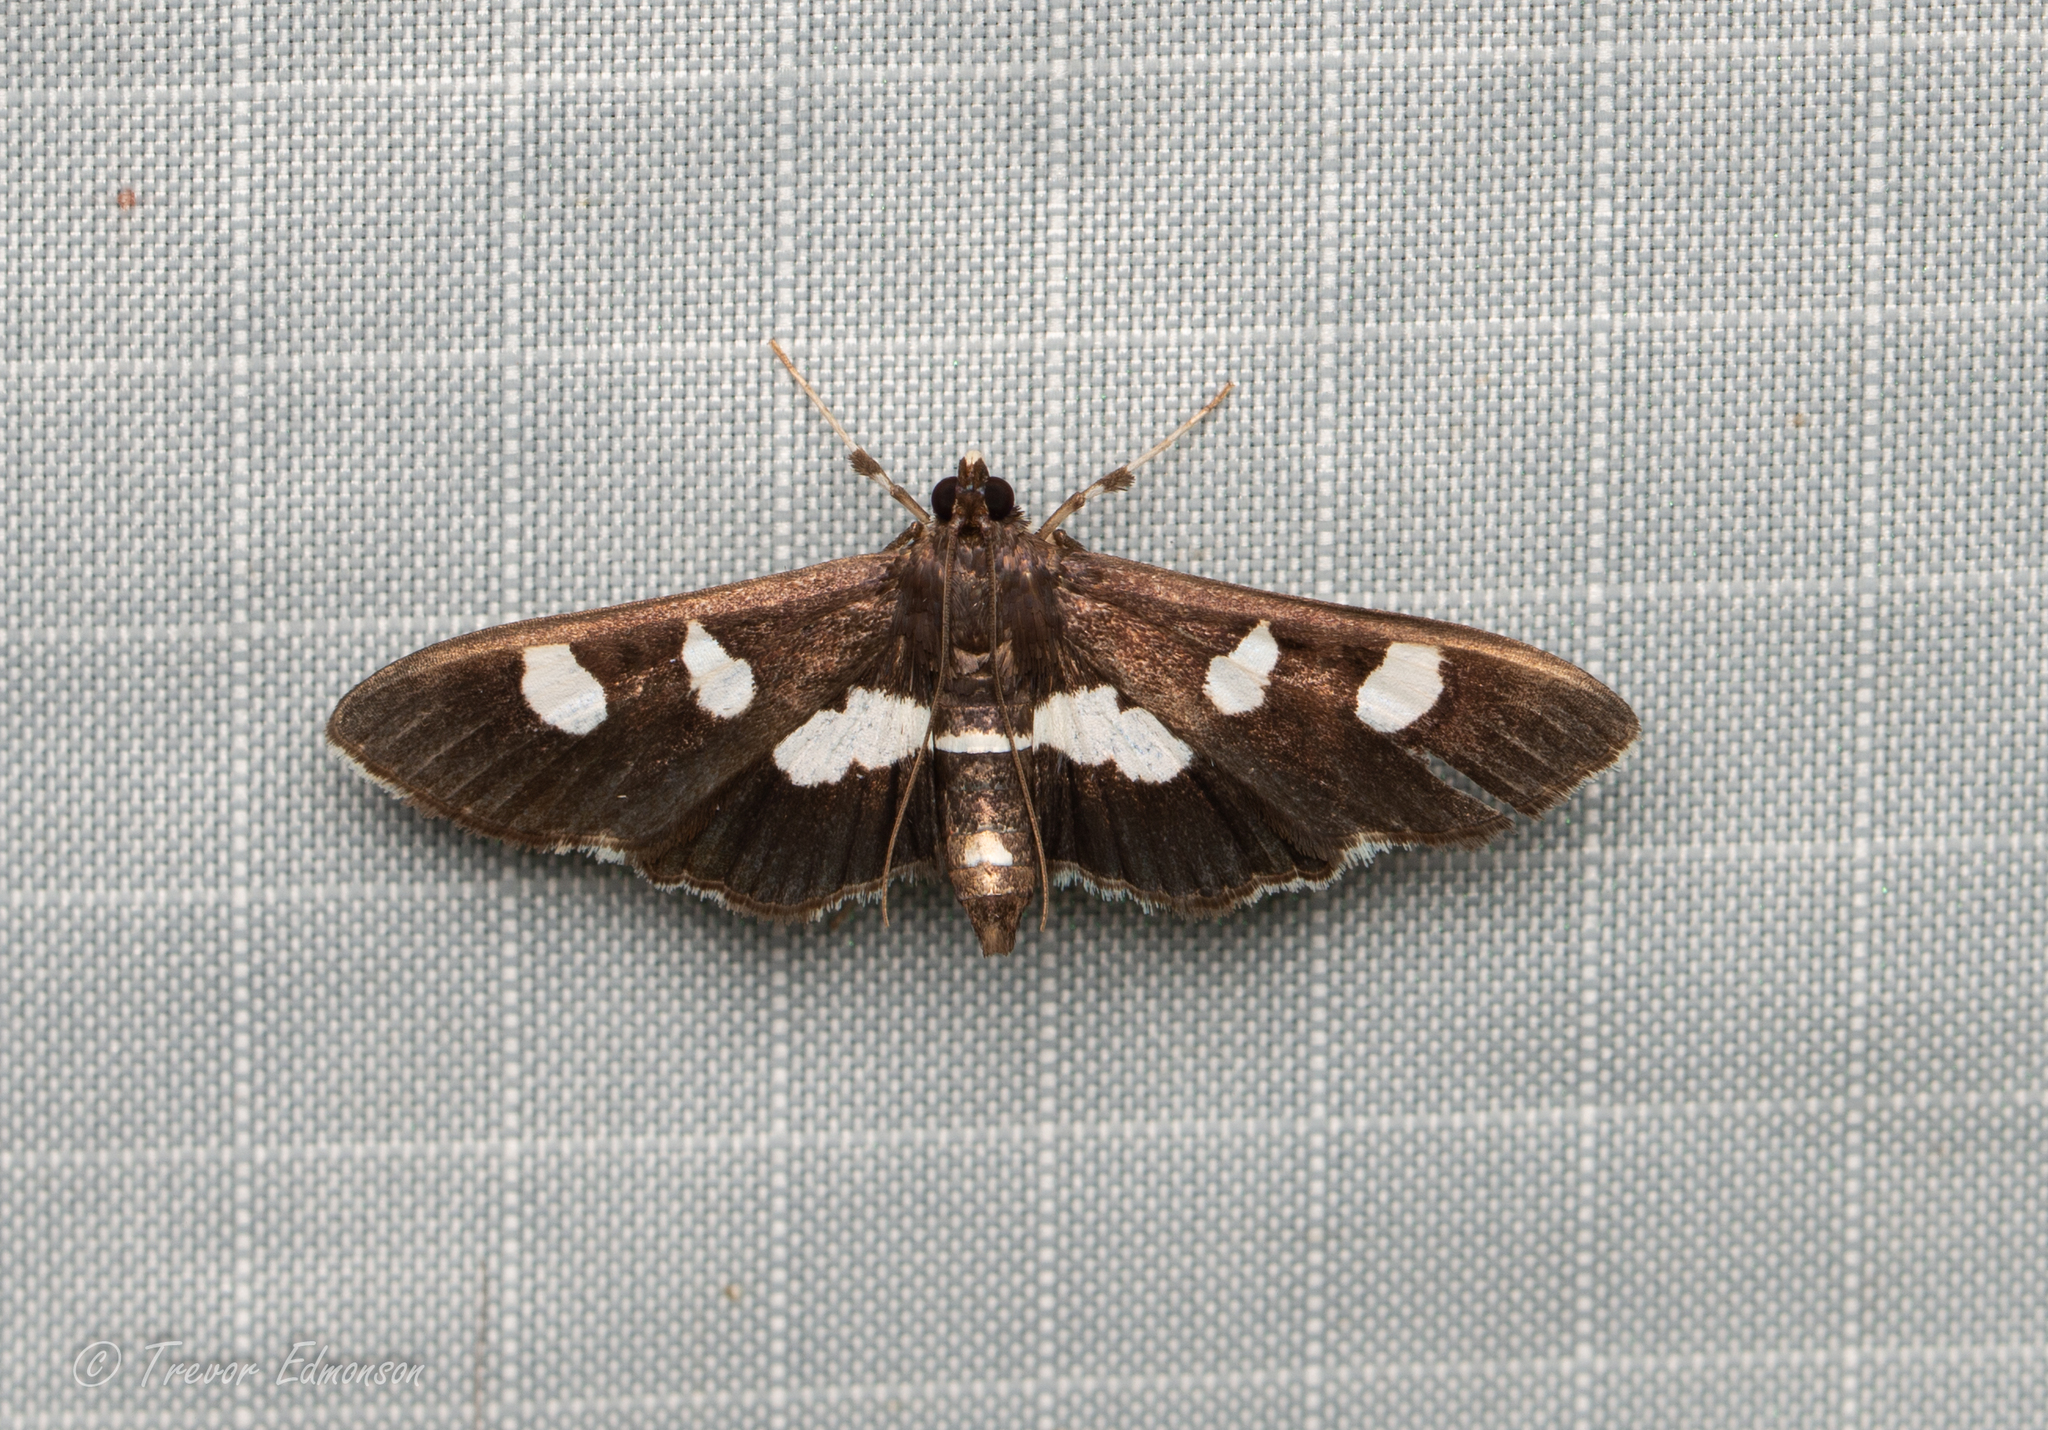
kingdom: Animalia
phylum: Arthropoda
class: Insecta
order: Lepidoptera
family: Crambidae
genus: Desmia
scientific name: Desmia
